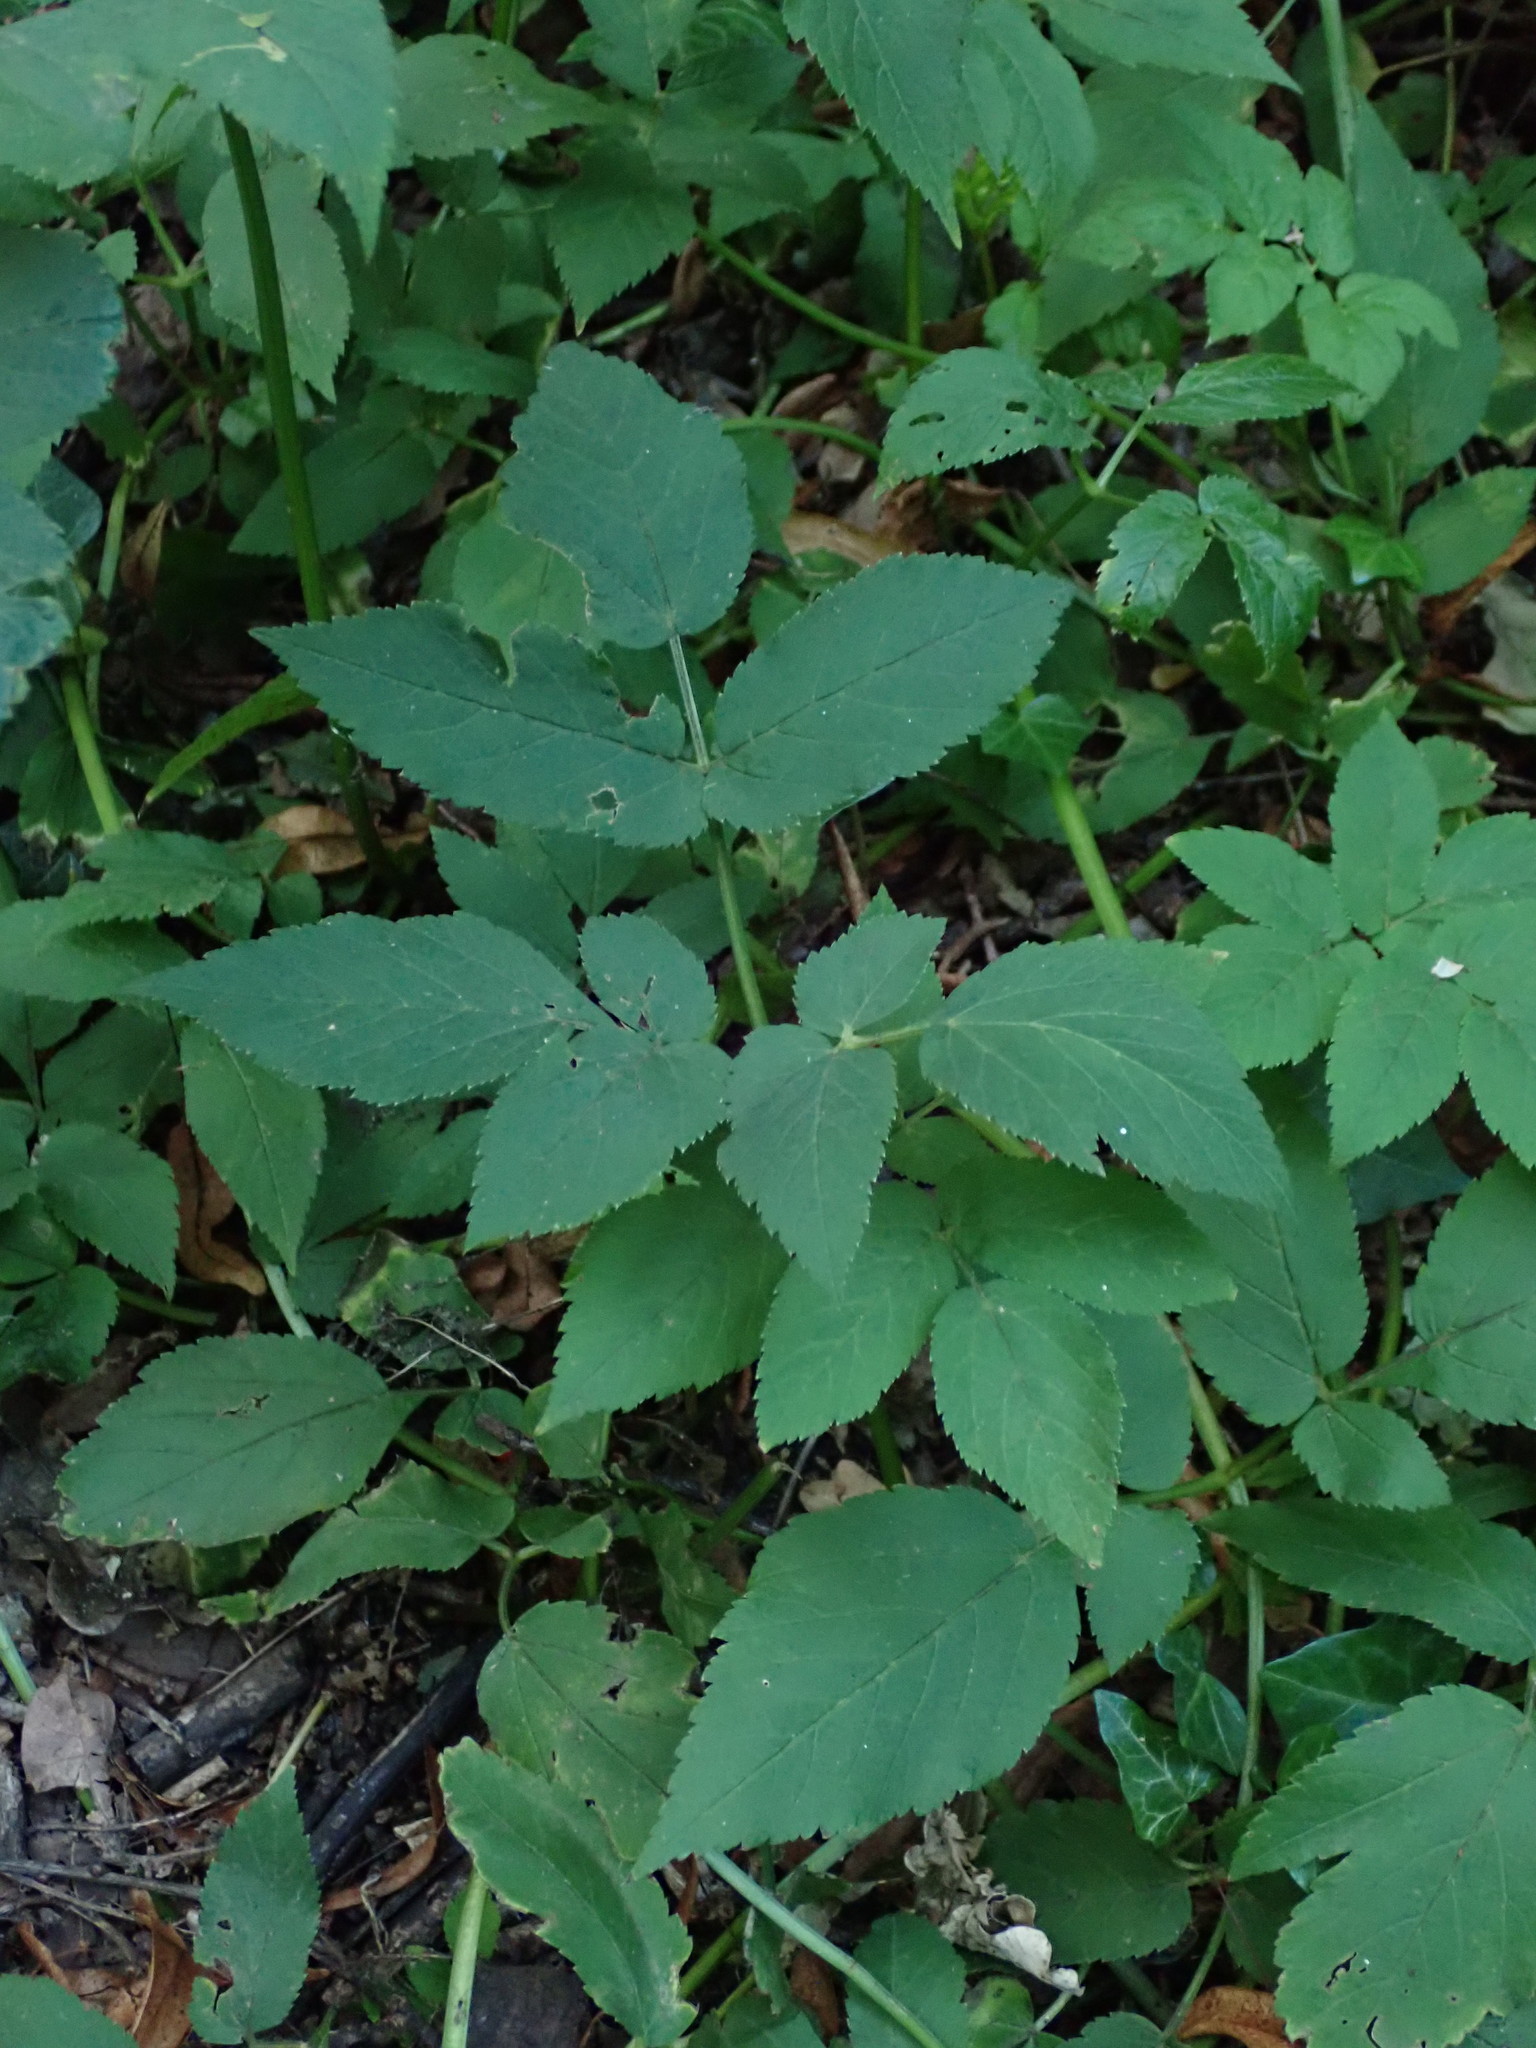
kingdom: Plantae
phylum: Tracheophyta
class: Magnoliopsida
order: Apiales
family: Apiaceae
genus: Aegopodium
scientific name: Aegopodium podagraria
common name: Ground-elder
